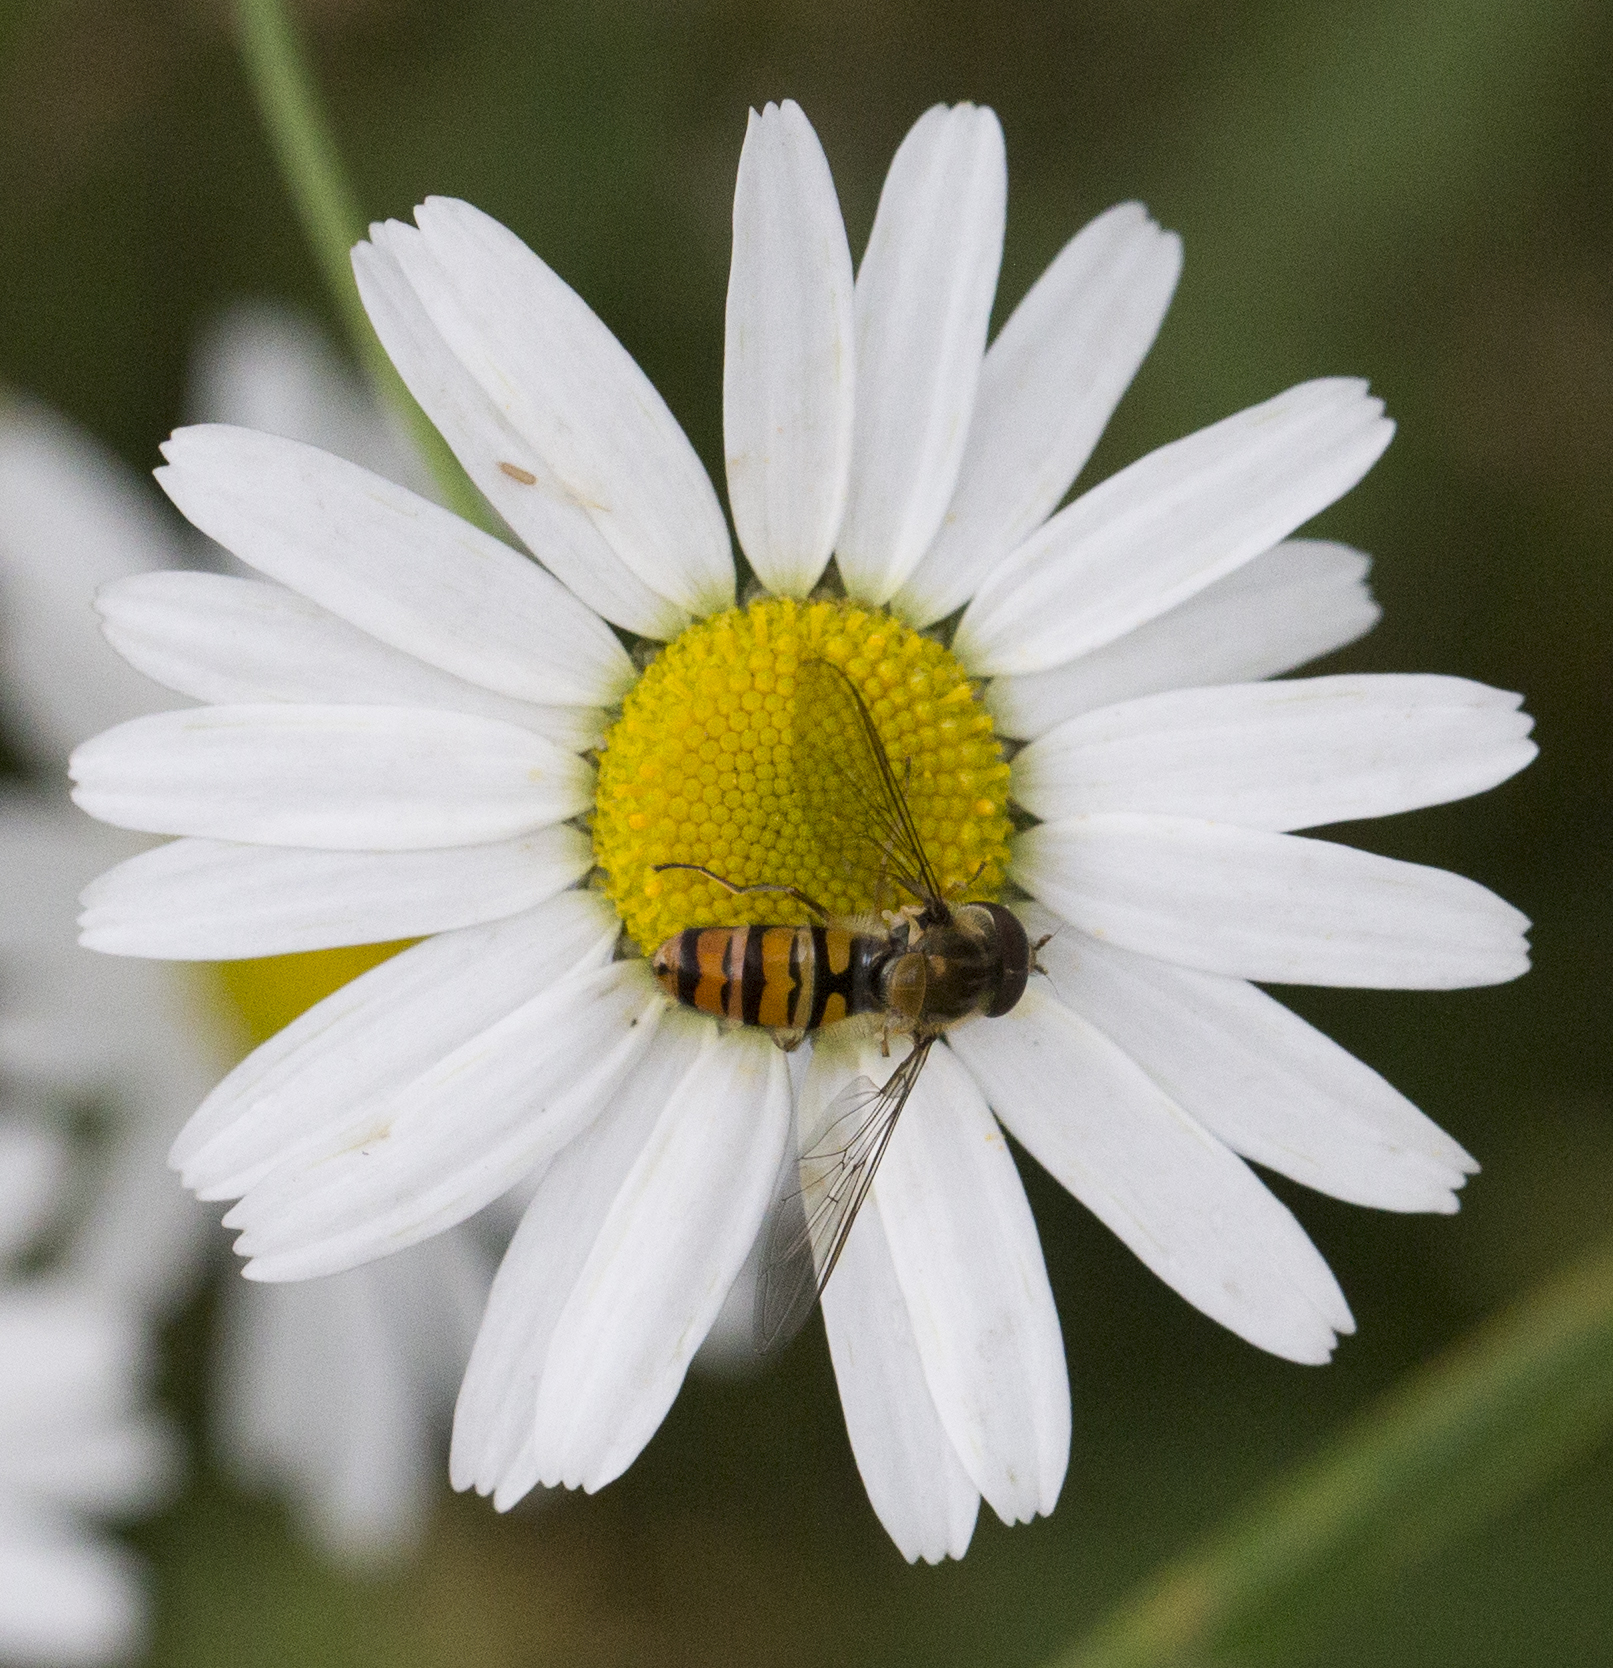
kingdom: Animalia
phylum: Arthropoda
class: Insecta
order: Diptera
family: Syrphidae
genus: Episyrphus
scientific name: Episyrphus balteatus
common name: Marmalade hoverfly
